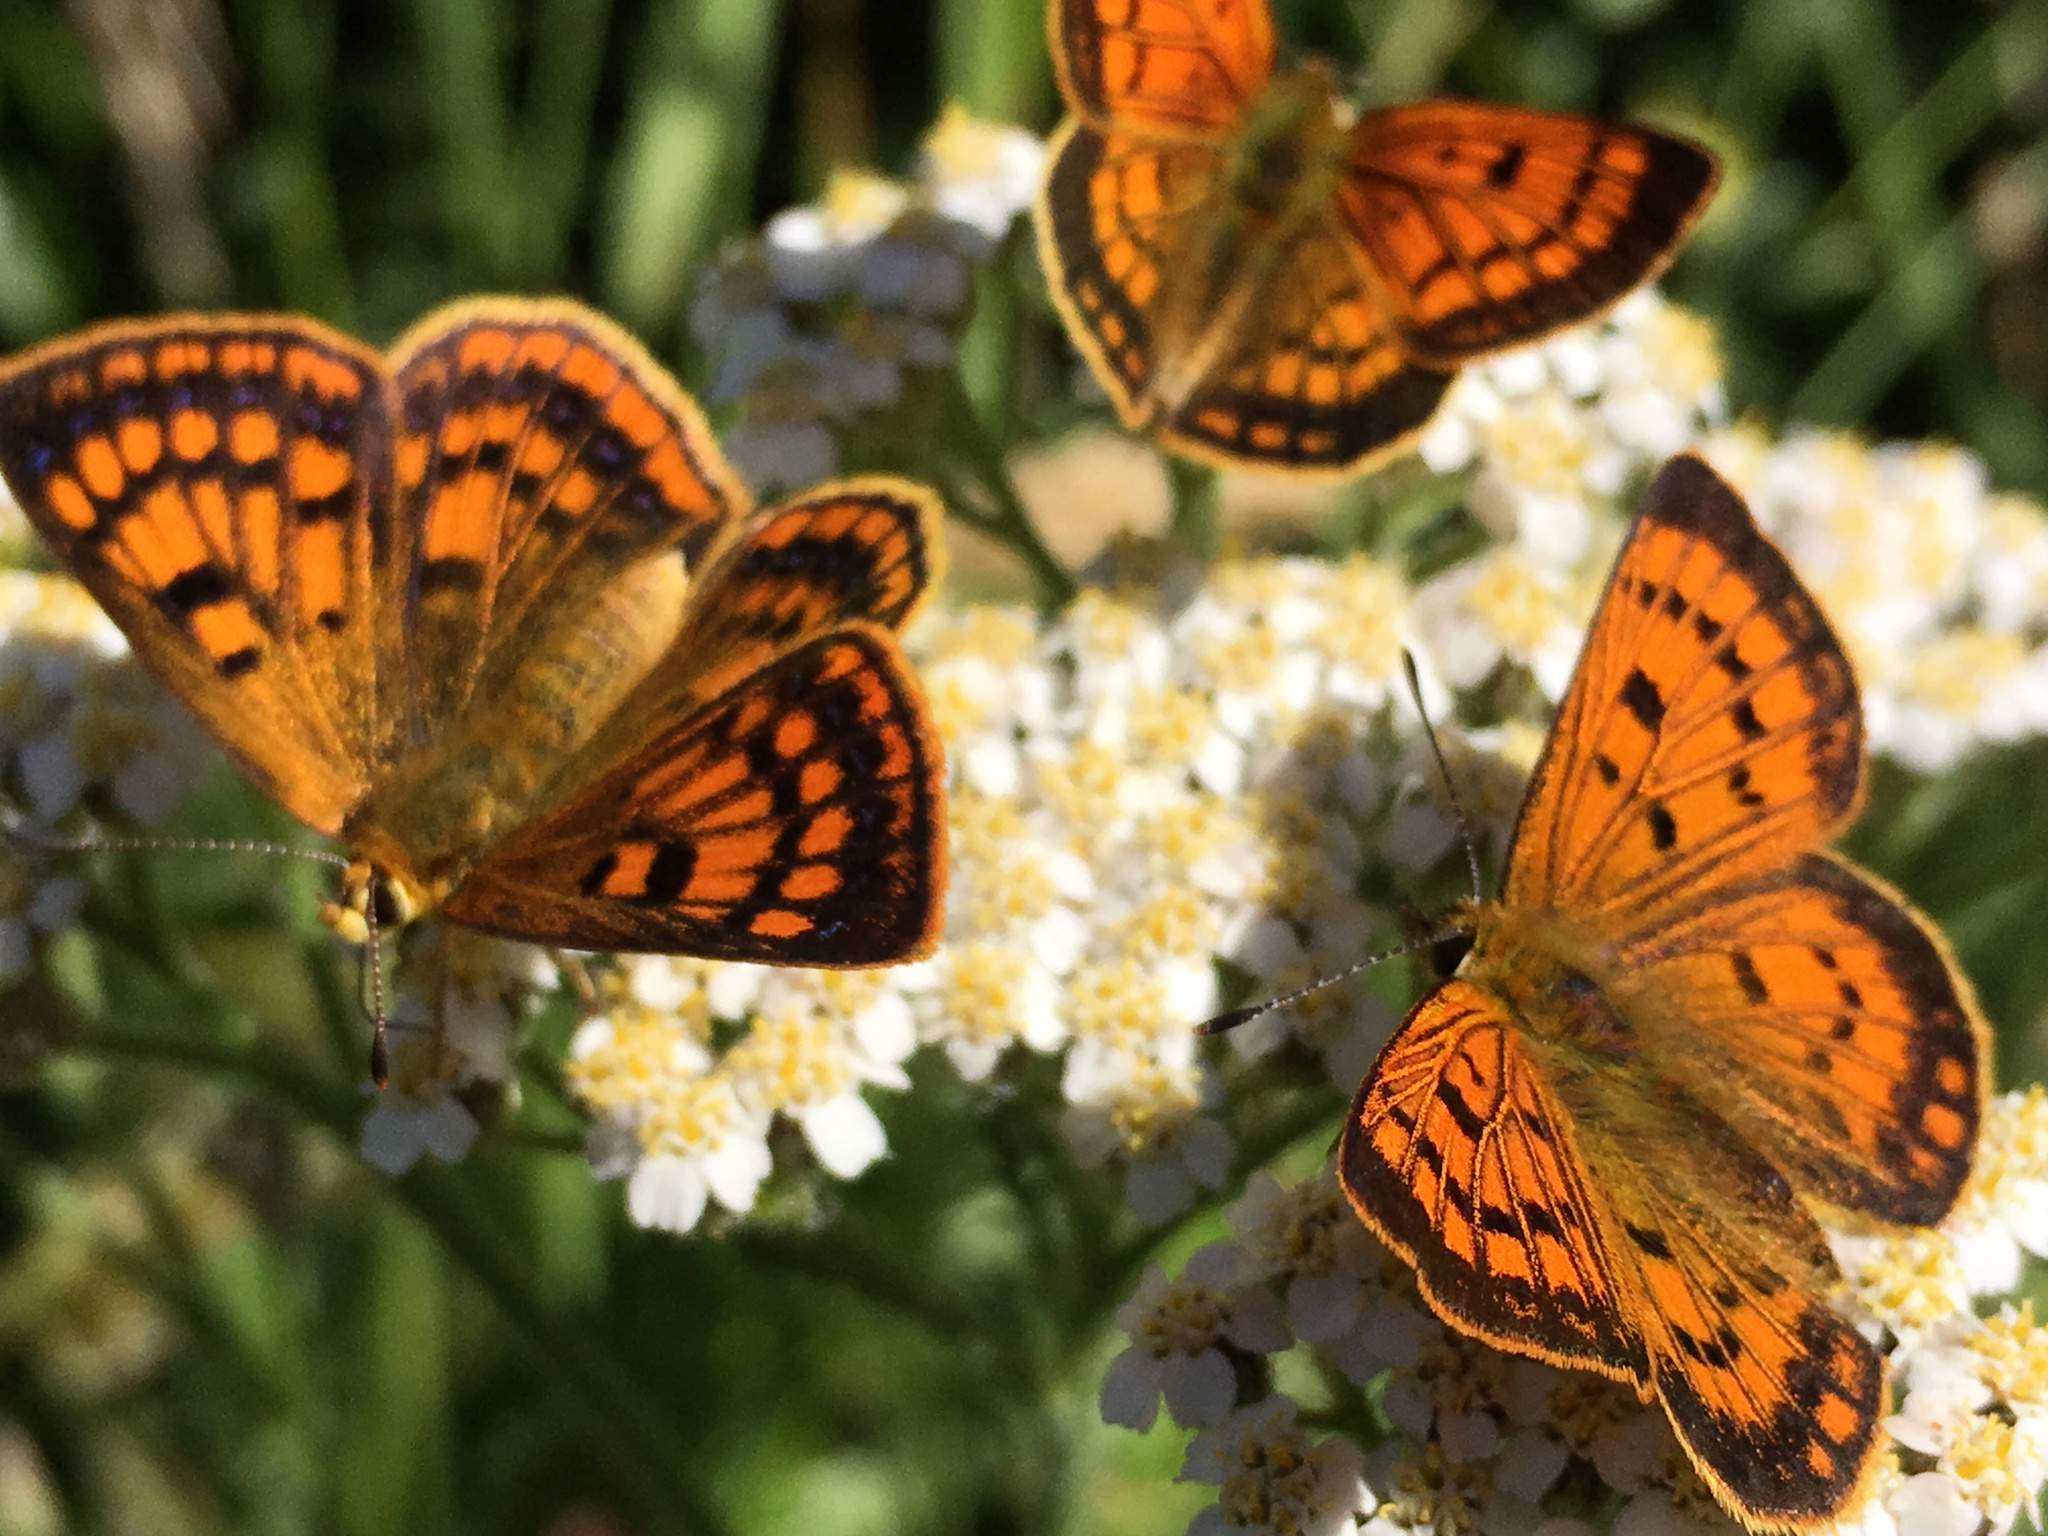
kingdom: Animalia
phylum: Arthropoda
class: Insecta
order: Lepidoptera
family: Lycaenidae
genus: Lycaena
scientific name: Lycaena
